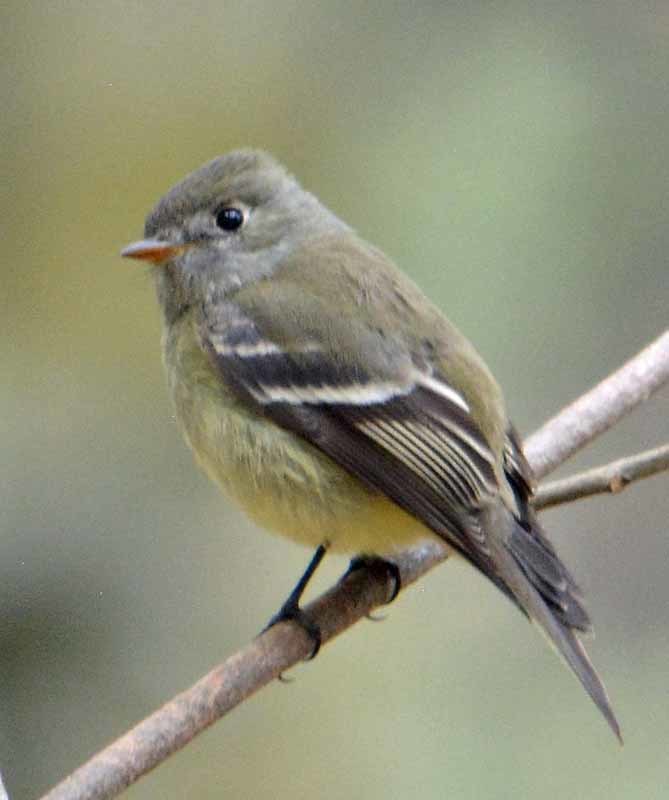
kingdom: Animalia
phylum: Chordata
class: Aves
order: Passeriformes
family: Tyrannidae
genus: Empidonax
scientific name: Empidonax hammondii
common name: Hammond's flycatcher
